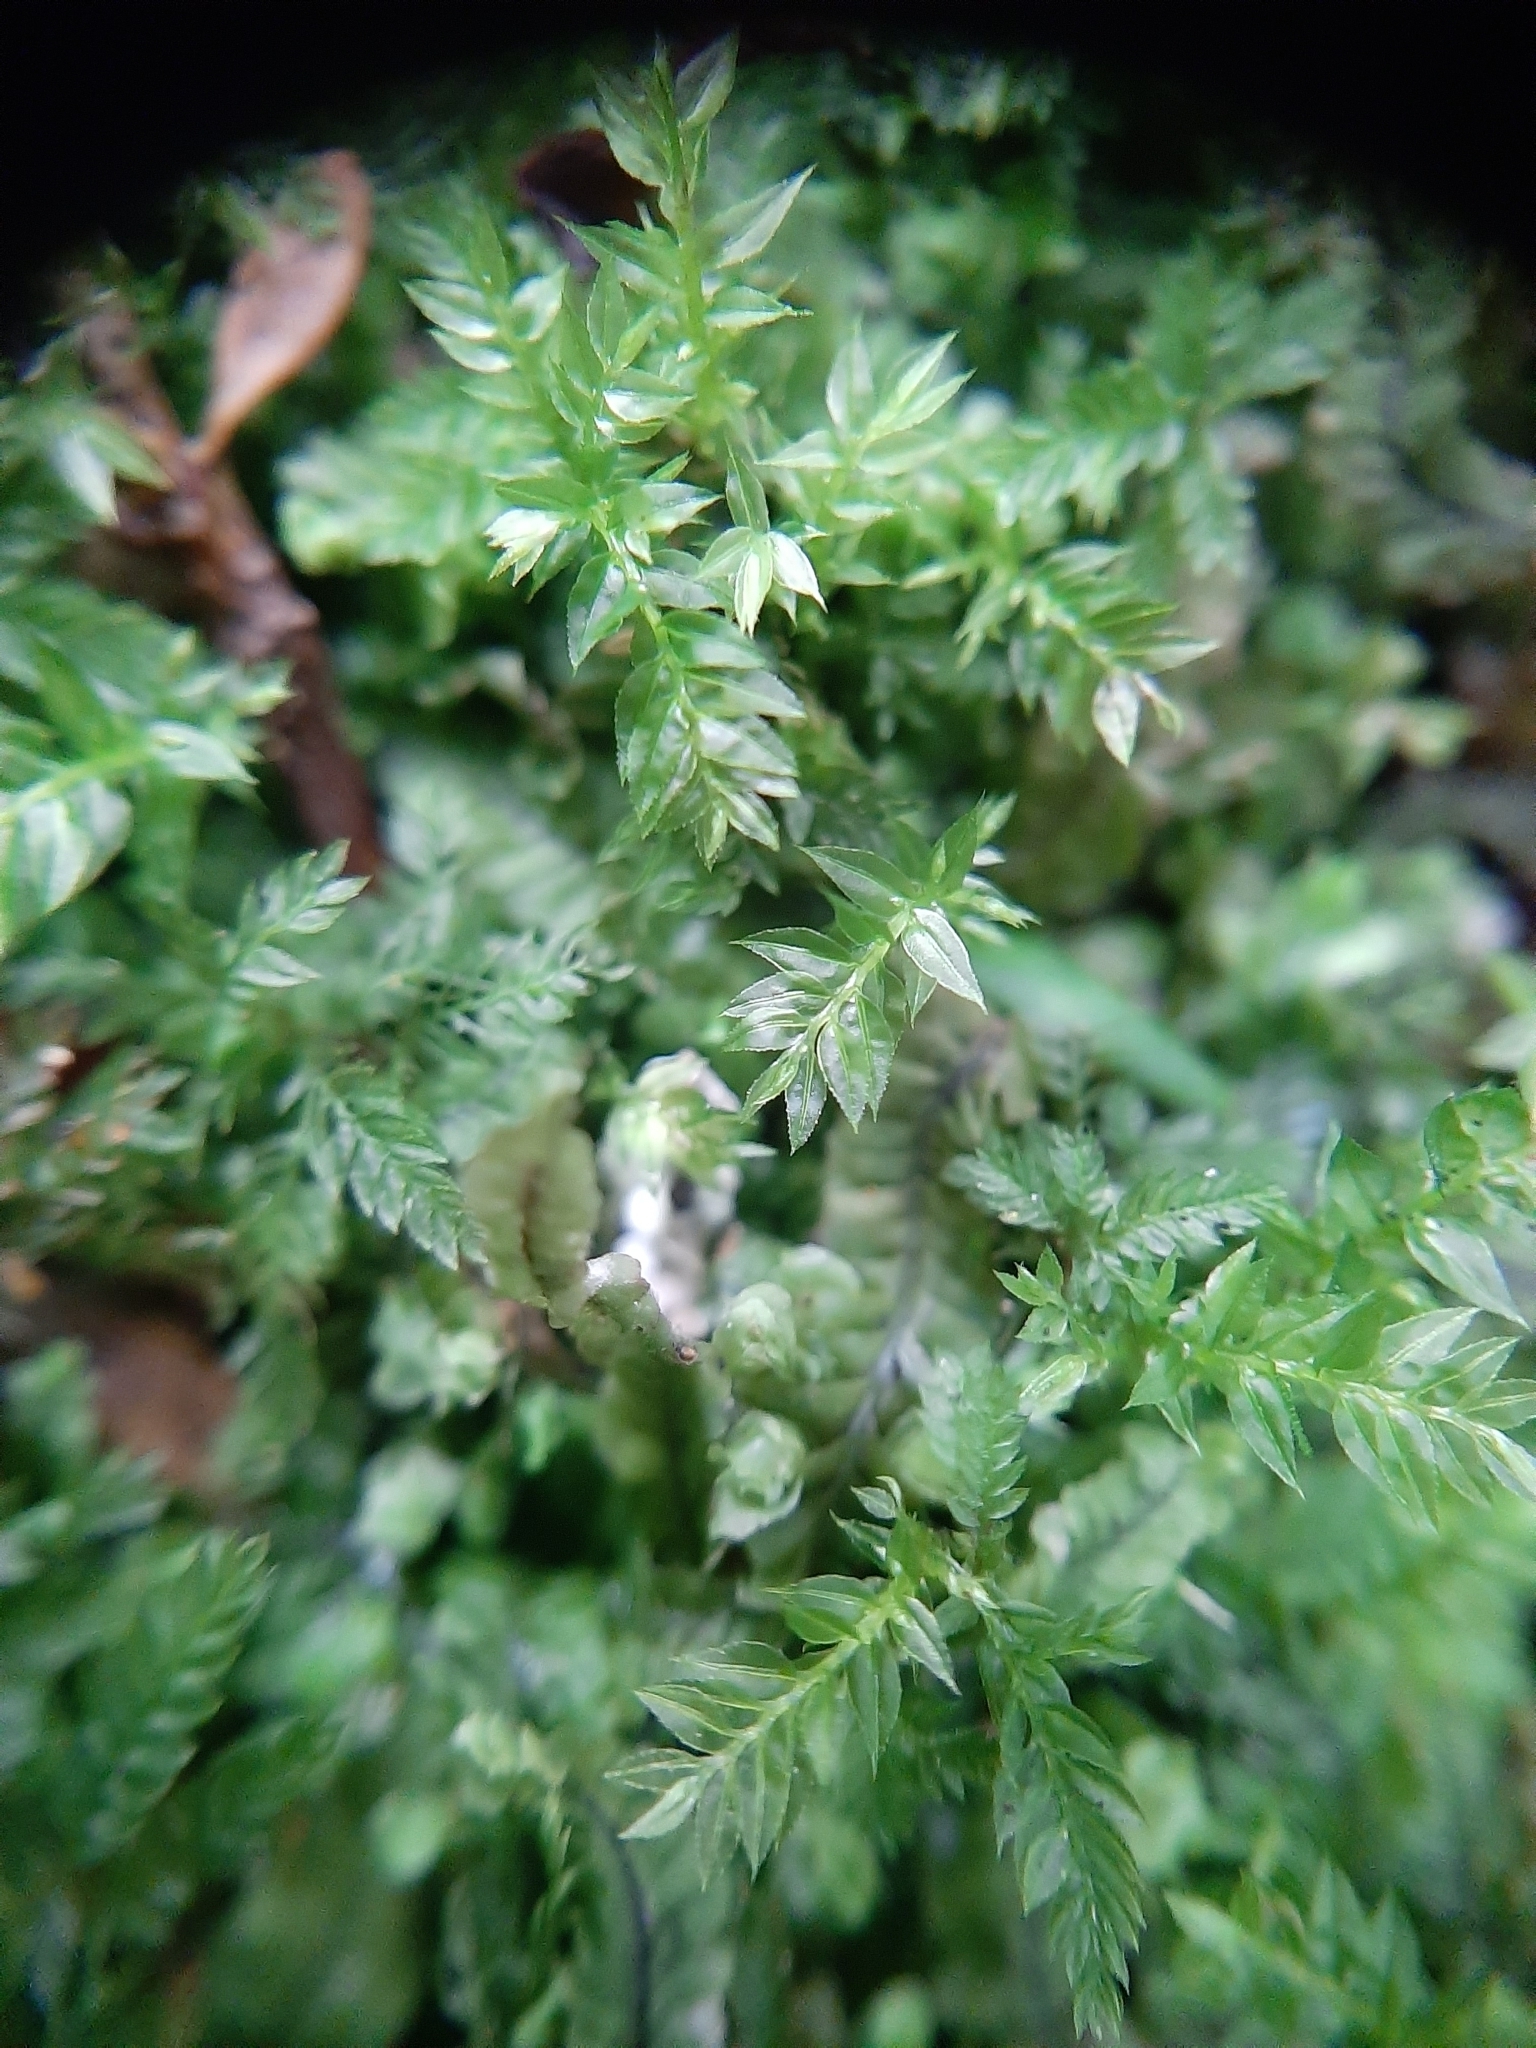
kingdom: Plantae
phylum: Bryophyta
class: Bryopsida
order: Aulacomniales
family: Aulacomniaceae
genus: Hymenodontopsis
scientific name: Hymenodontopsis bifaria
